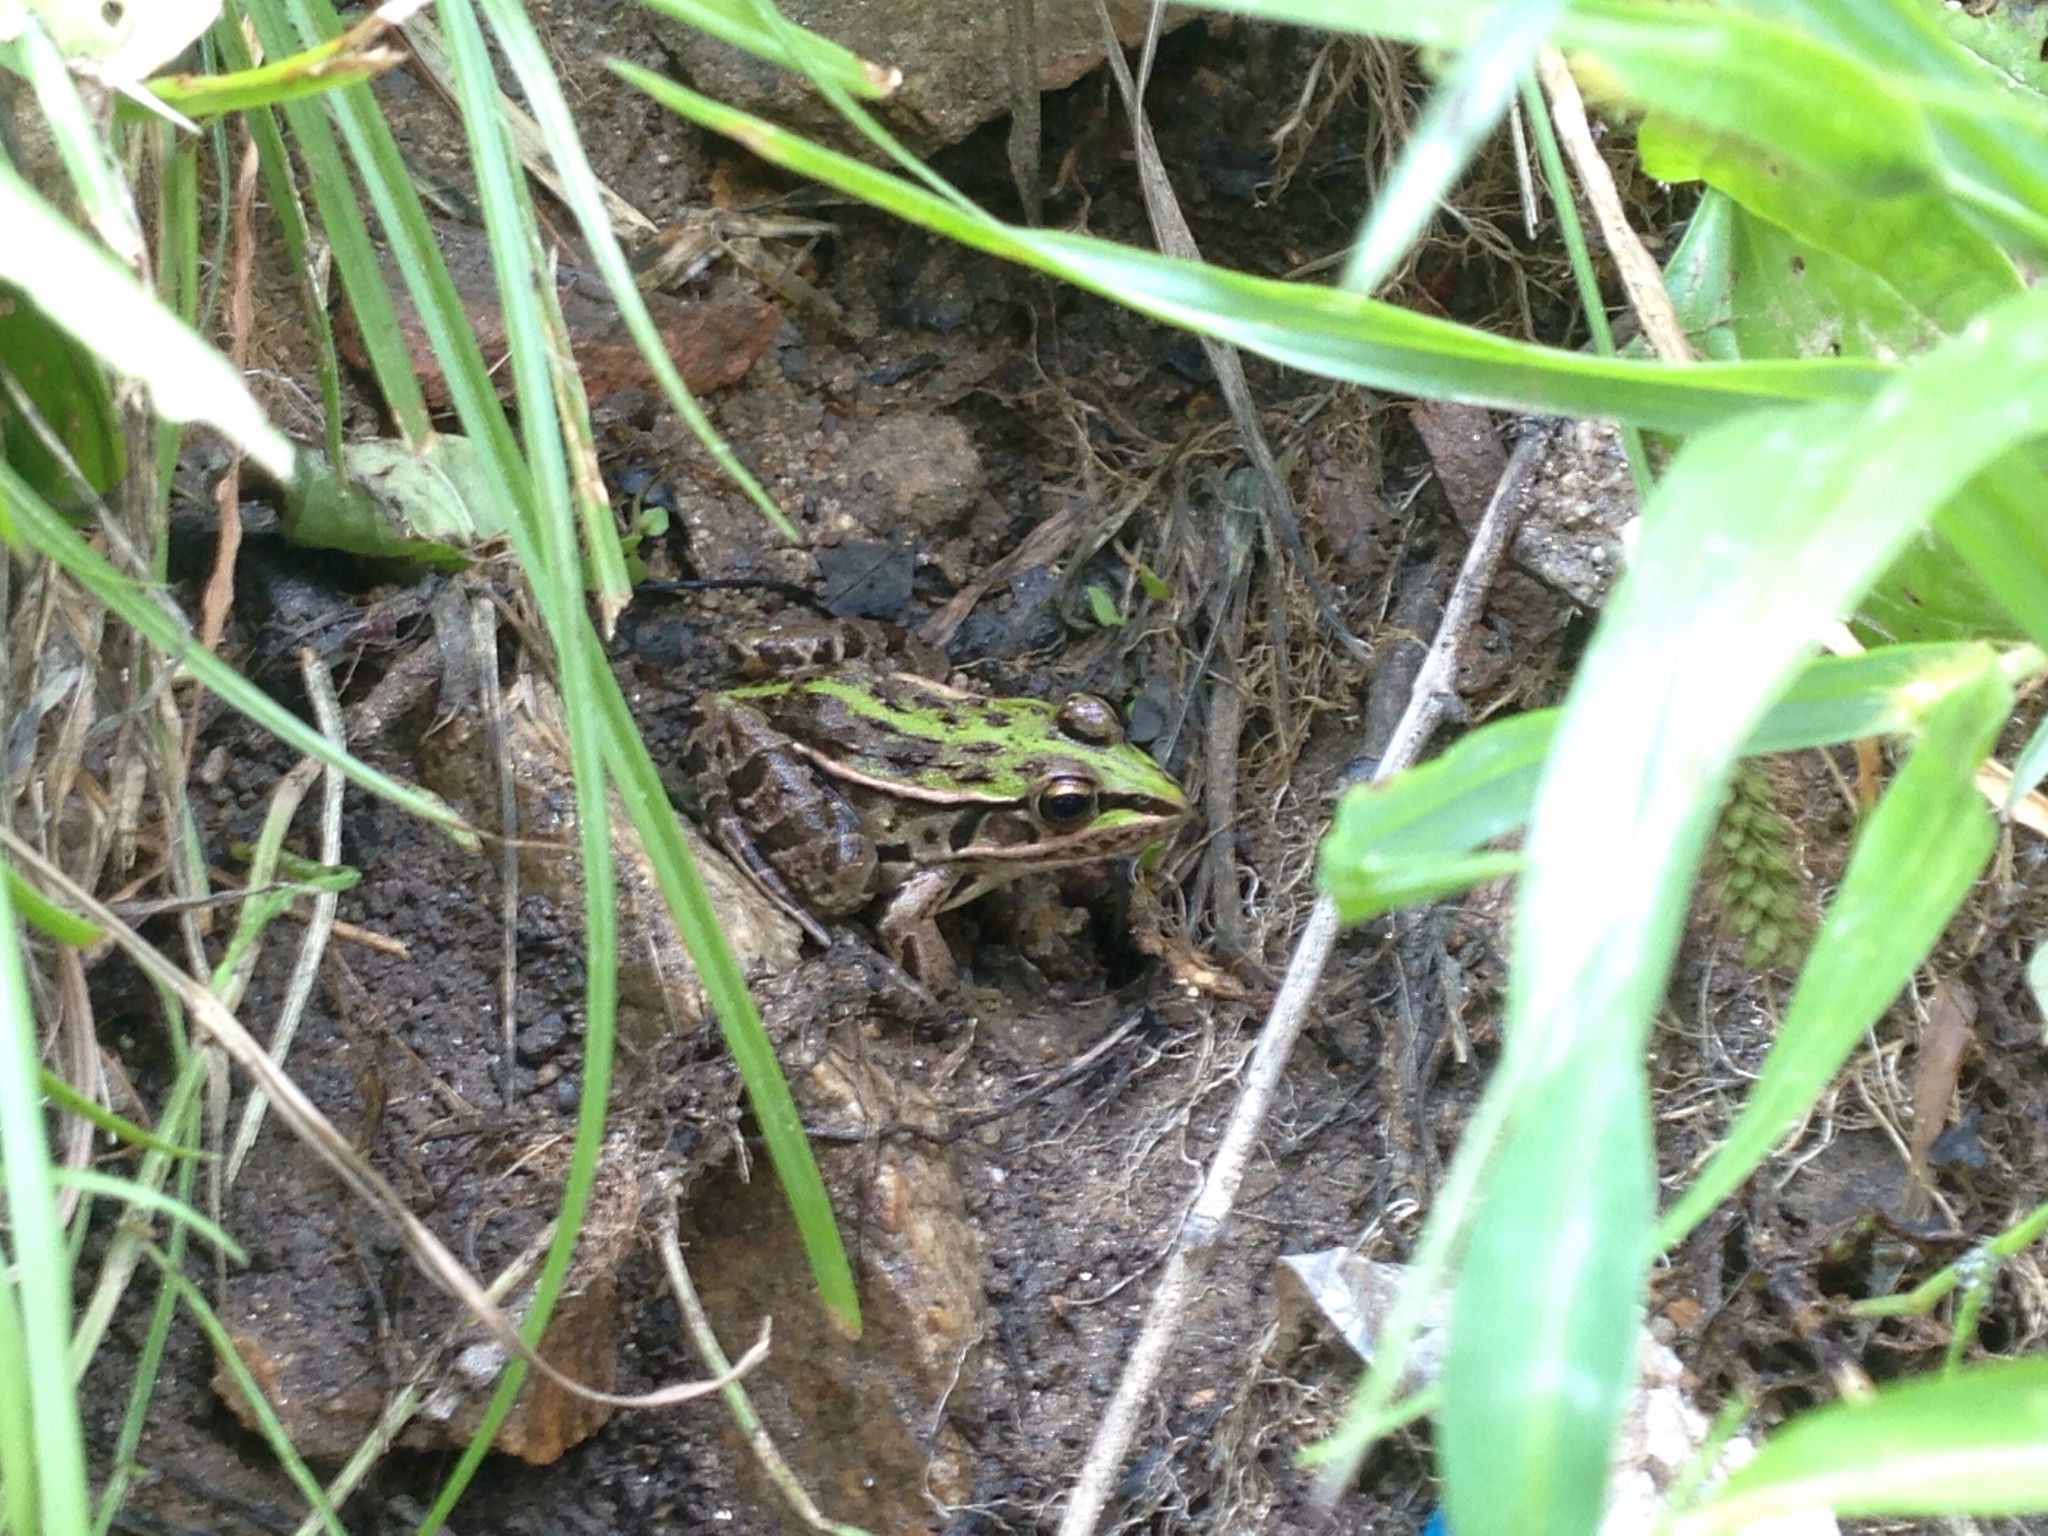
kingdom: Animalia
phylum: Chordata
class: Amphibia
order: Anura
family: Ranidae
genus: Pelophylax
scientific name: Pelophylax nigromaculatus
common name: Black-spotted pond frog
